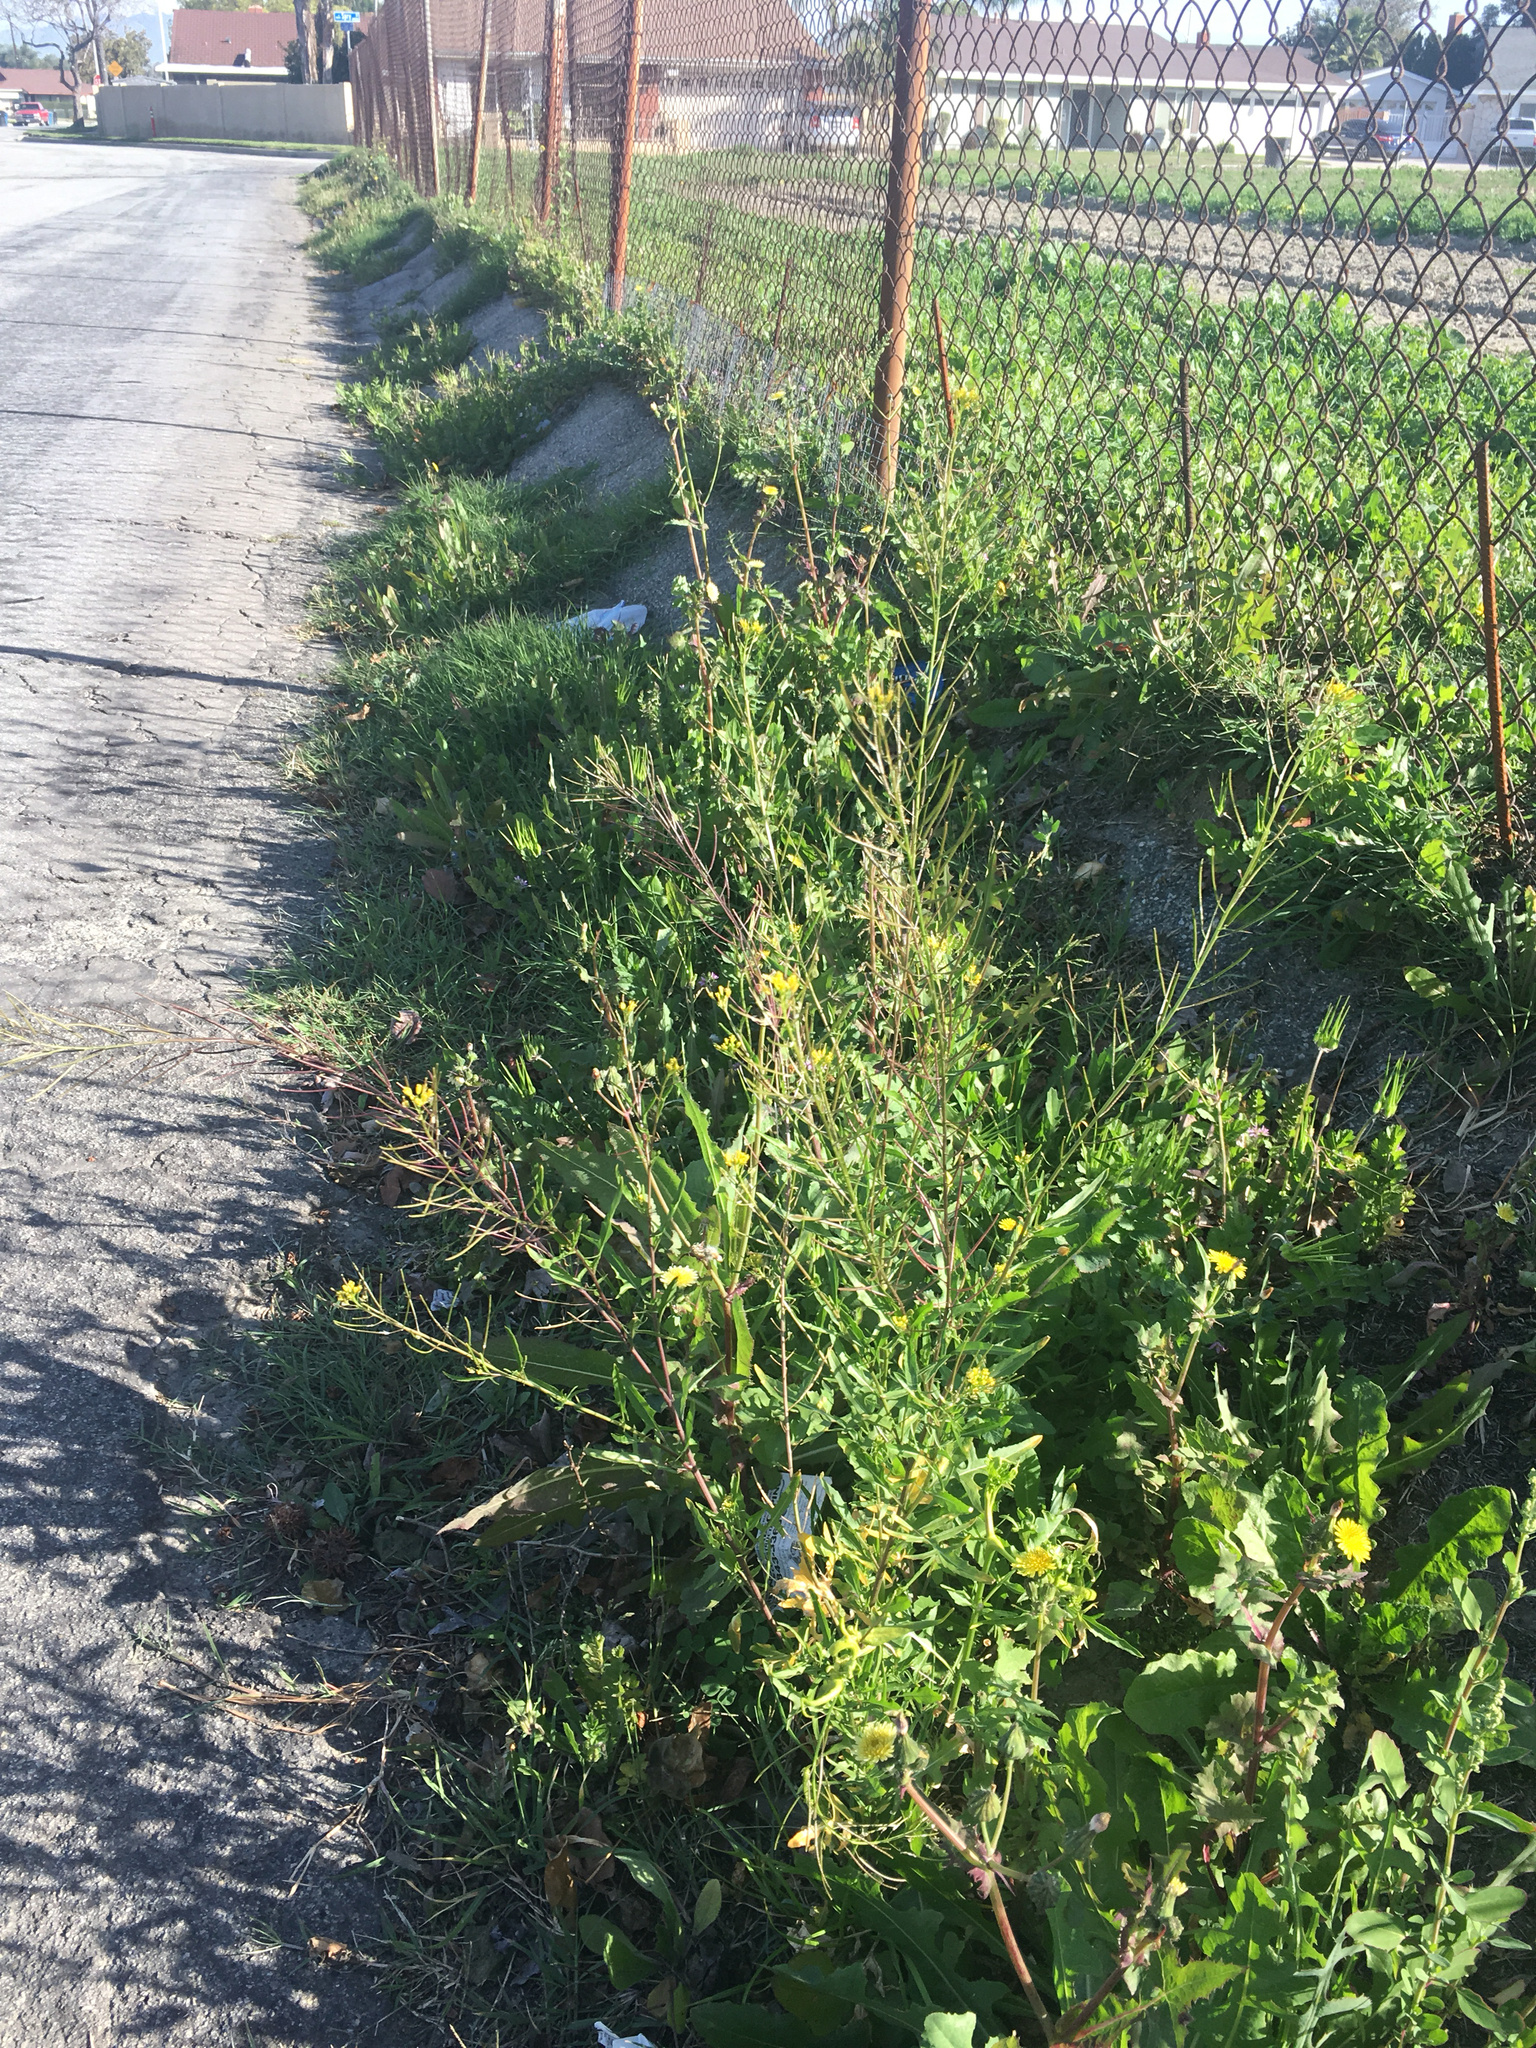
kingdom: Plantae
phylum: Tracheophyta
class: Magnoliopsida
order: Brassicales
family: Brassicaceae
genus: Sisymbrium
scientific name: Sisymbrium irio
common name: London rocket
